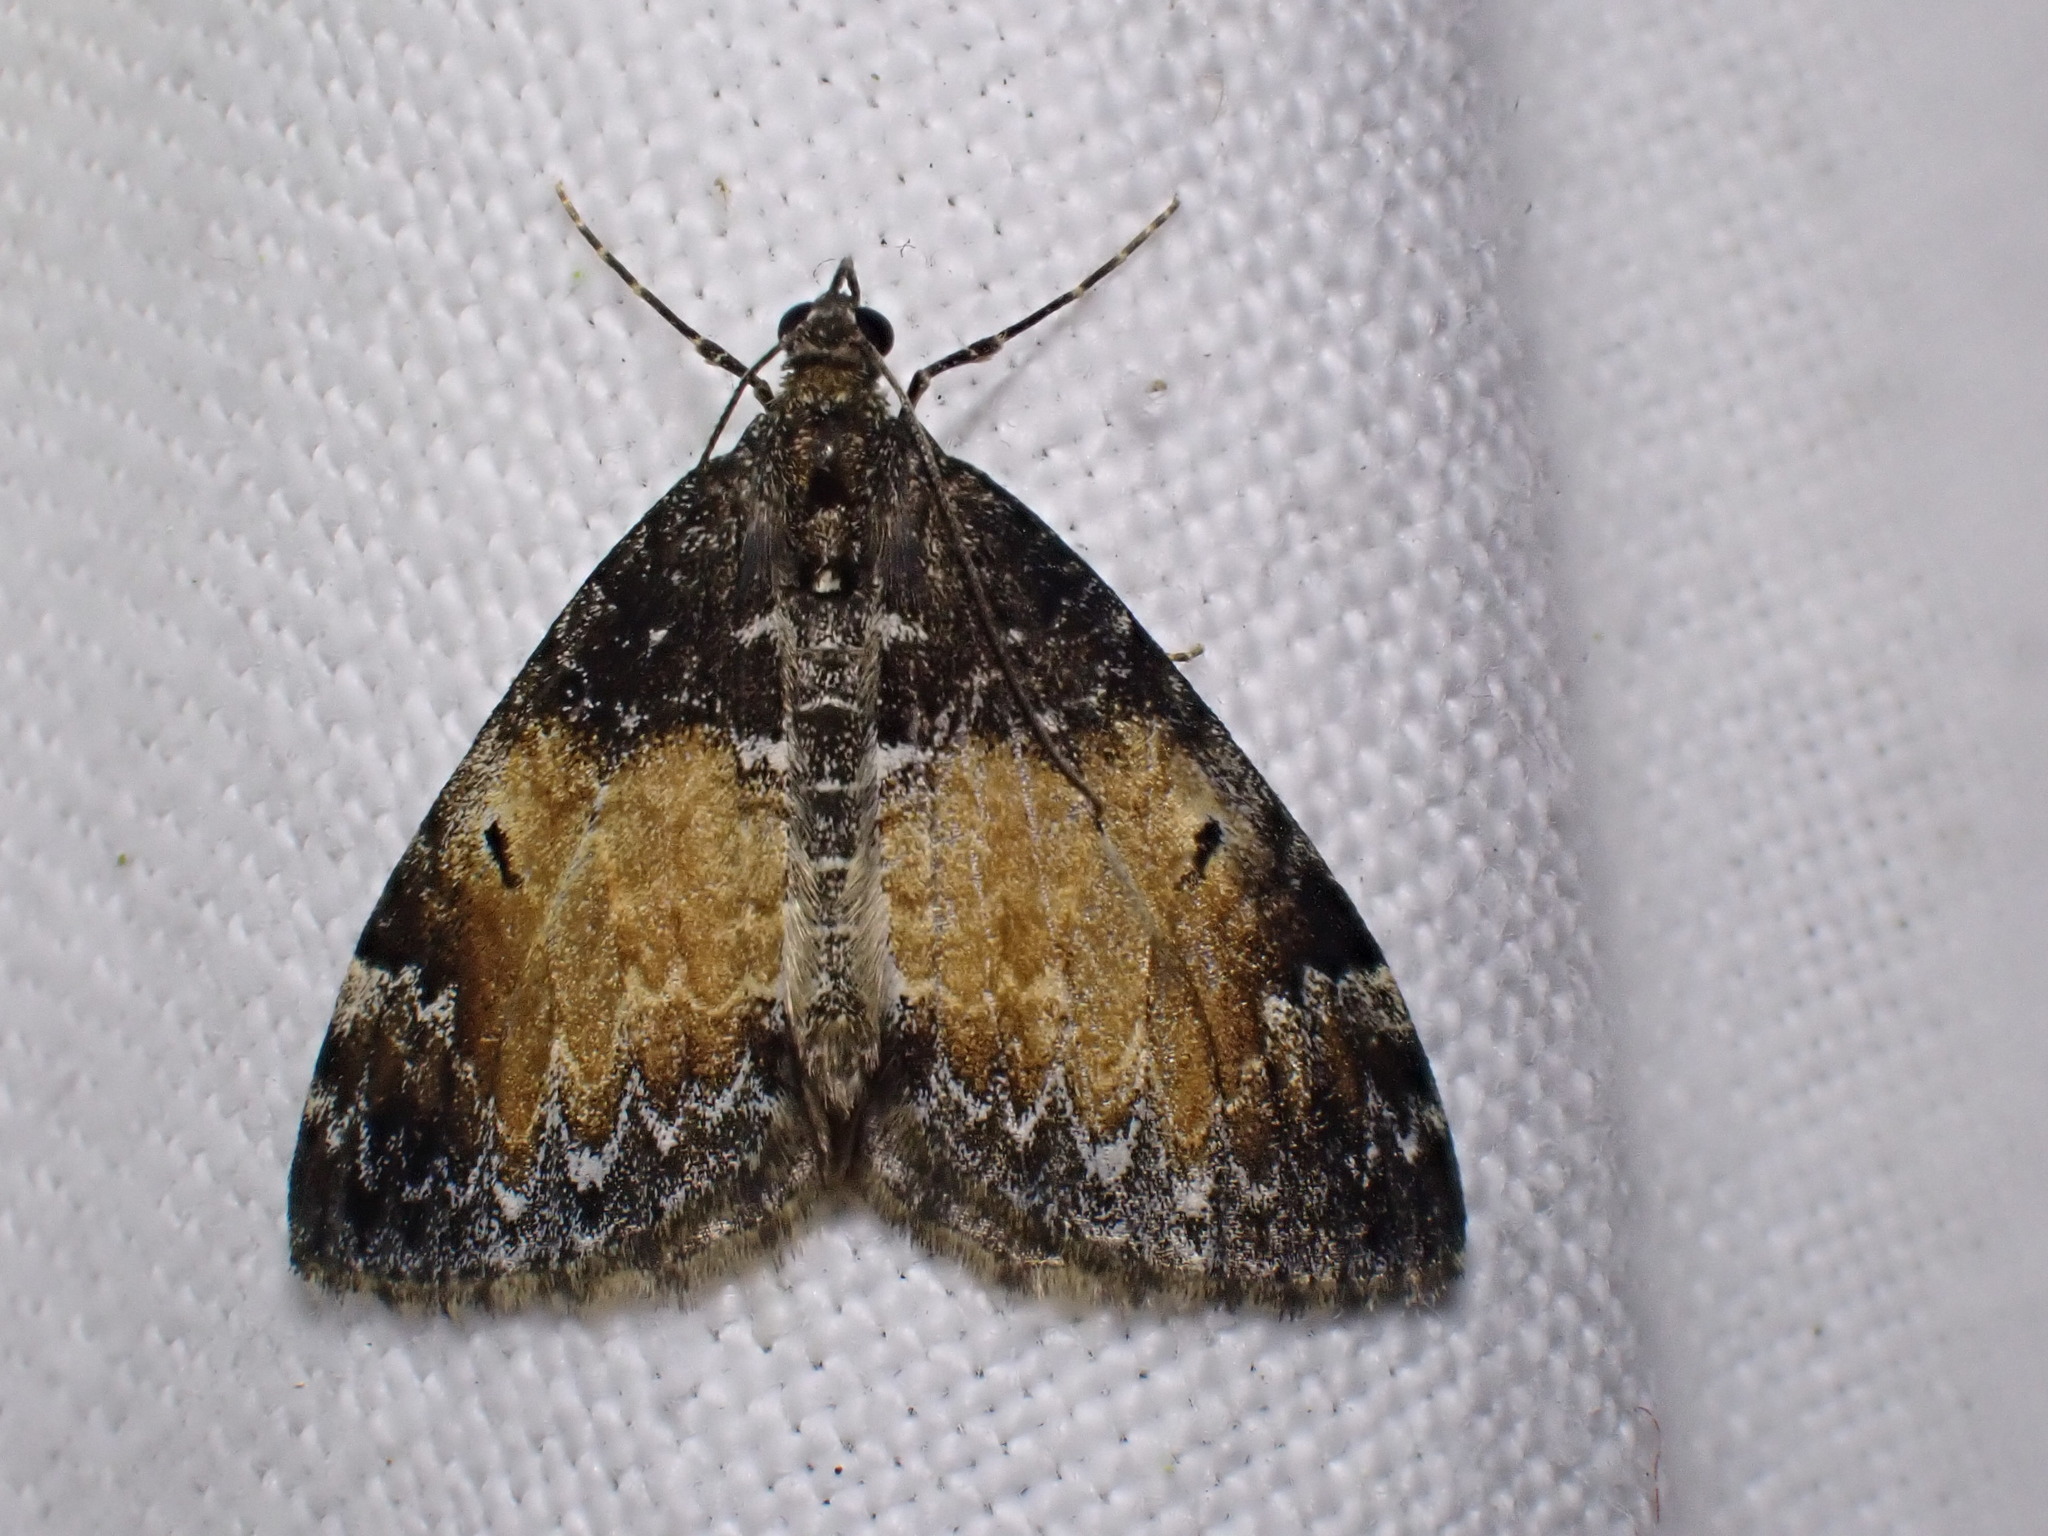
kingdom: Animalia
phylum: Arthropoda
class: Insecta
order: Lepidoptera
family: Geometridae
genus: Dysstroma
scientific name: Dysstroma truncata
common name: Common marbled carpet
